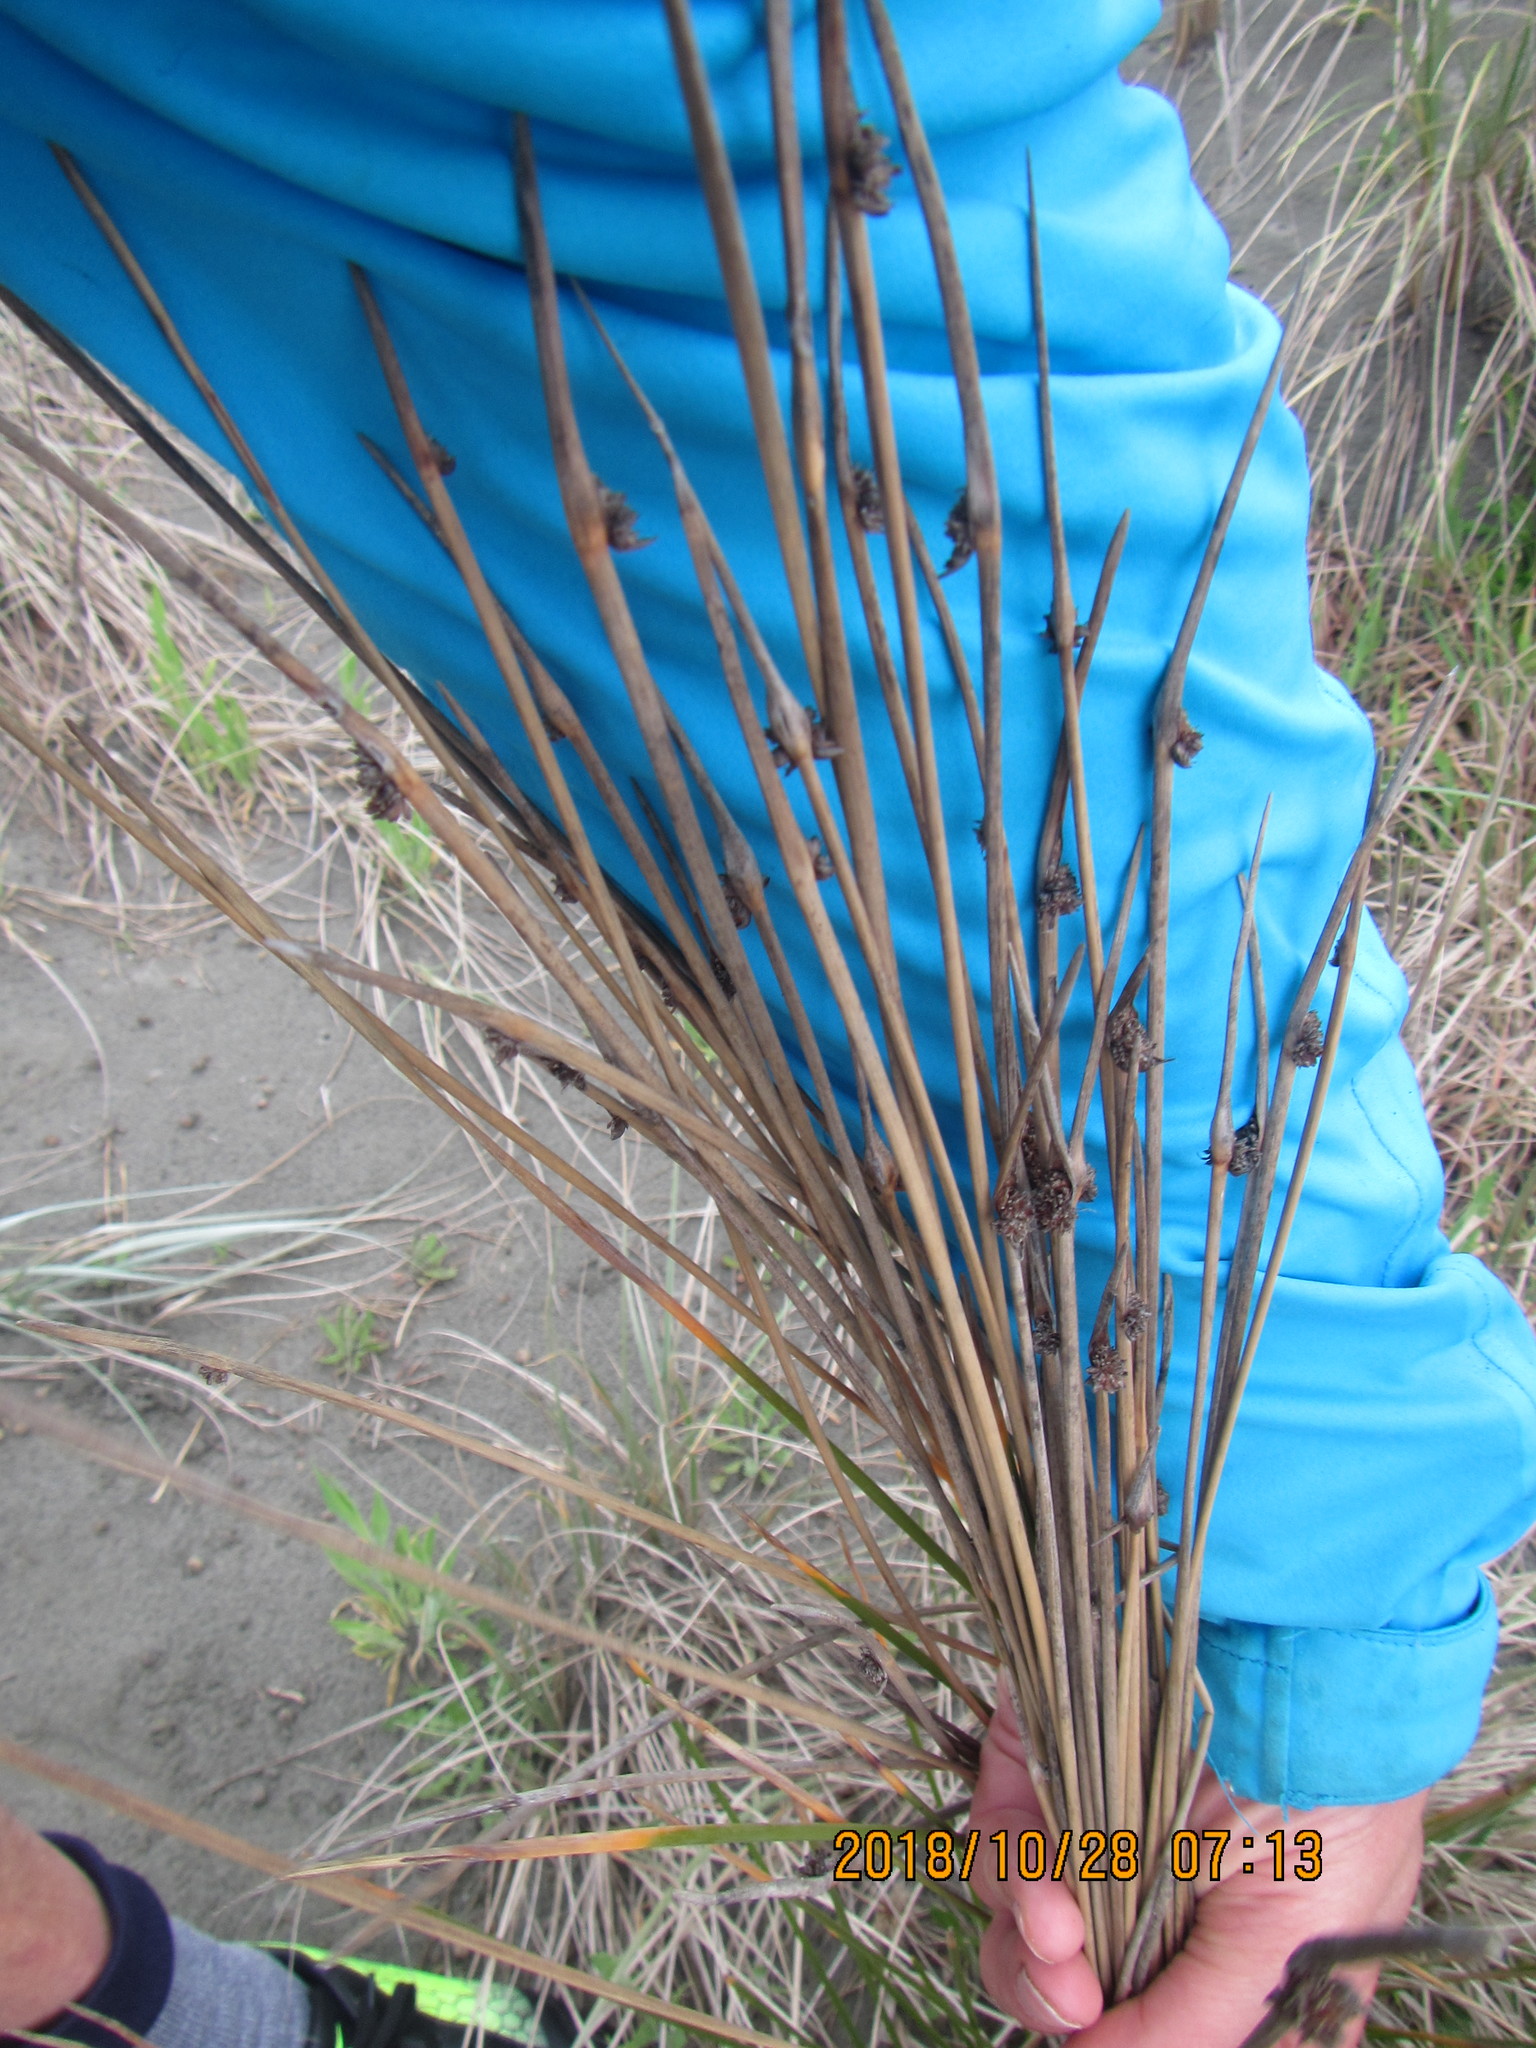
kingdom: Plantae
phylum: Tracheophyta
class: Liliopsida
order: Poales
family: Cyperaceae
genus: Ficinia
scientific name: Ficinia nodosa
